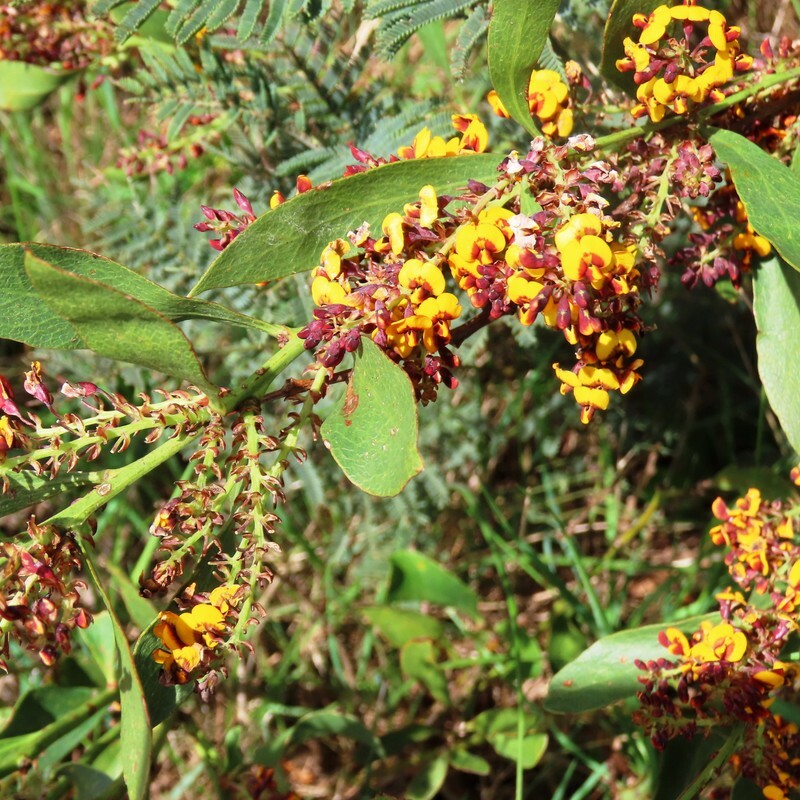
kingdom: Plantae
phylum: Tracheophyta
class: Magnoliopsida
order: Fabales
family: Fabaceae
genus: Daviesia
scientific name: Daviesia latifolia
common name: Hop bitter-pea
